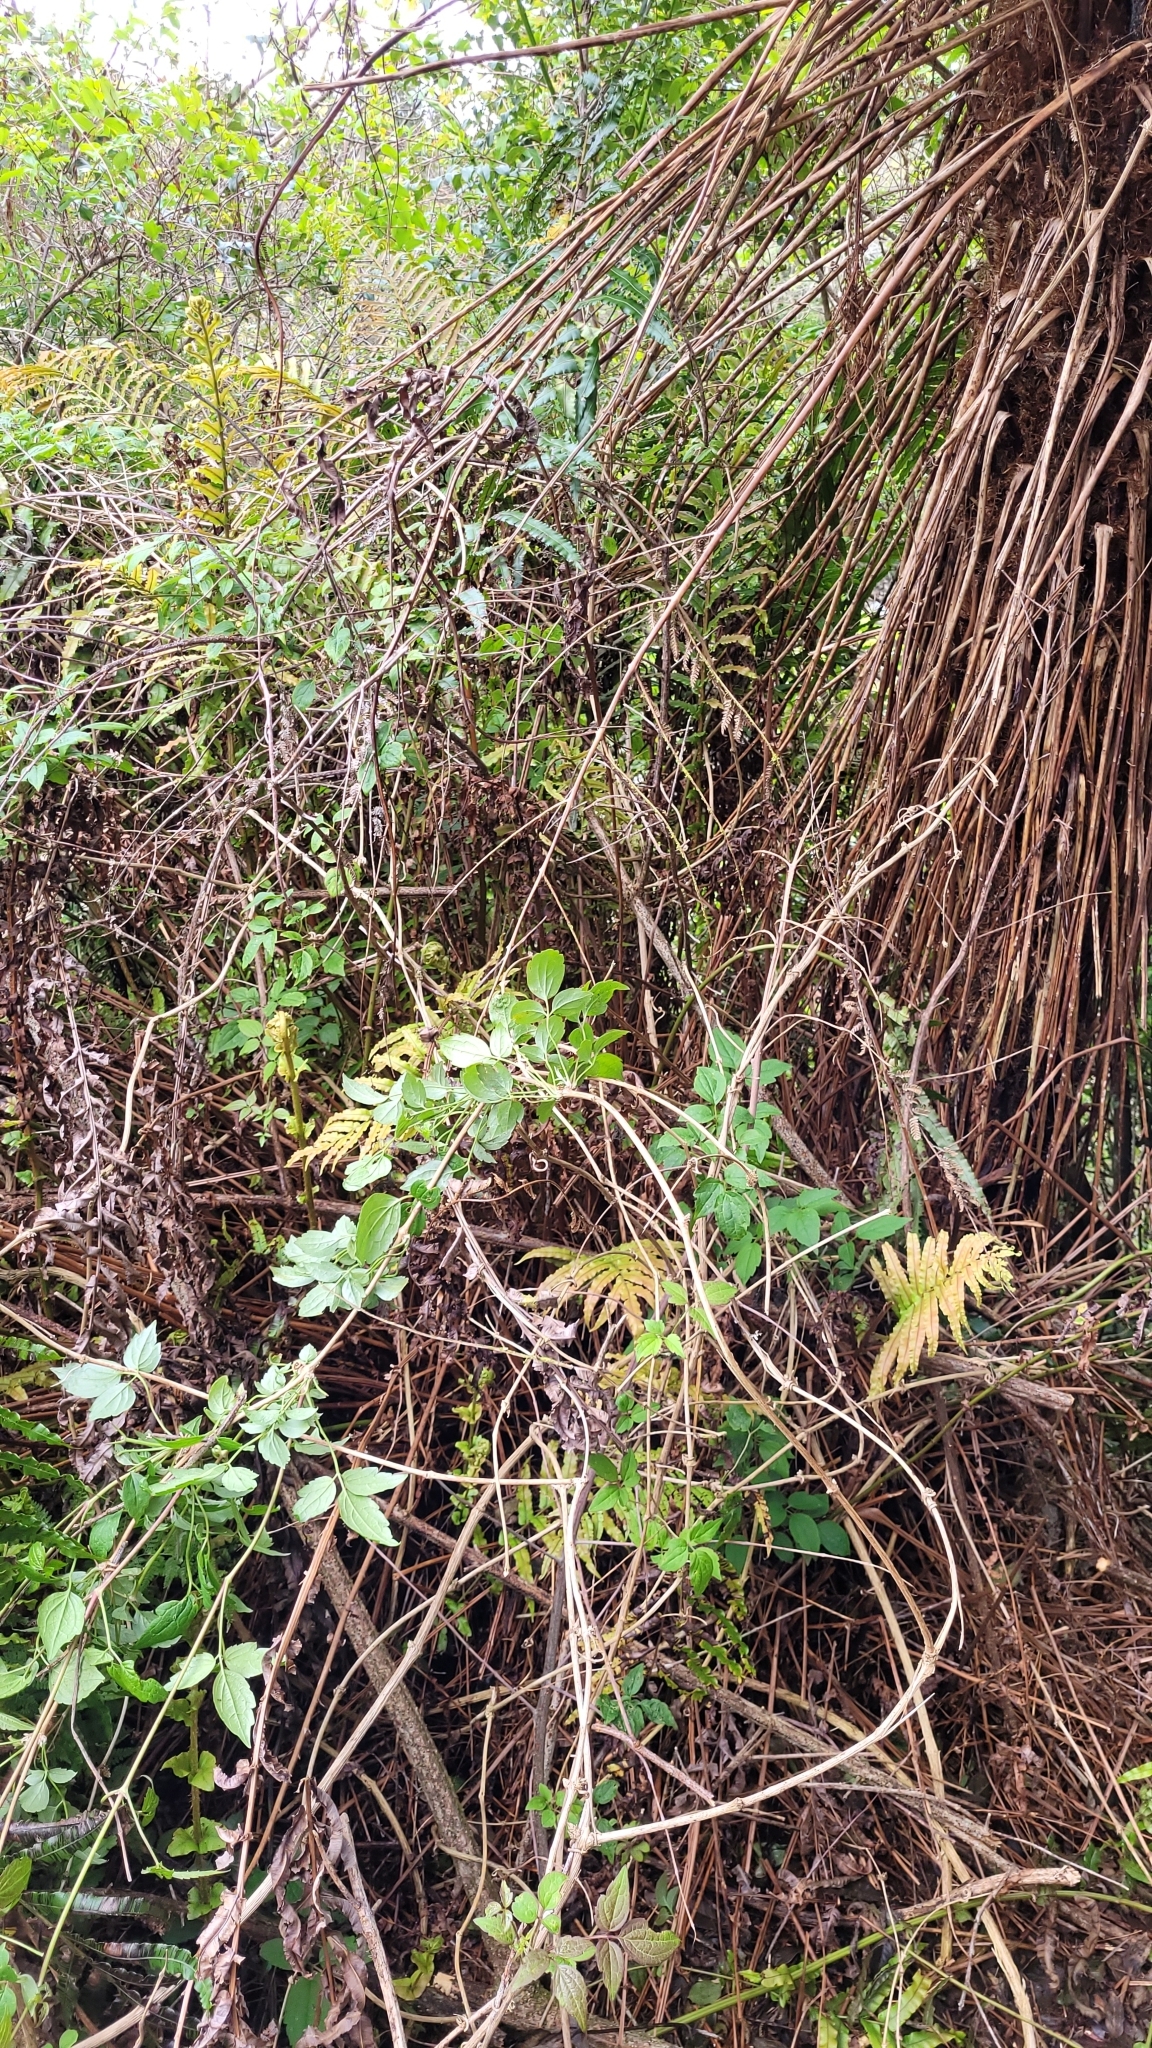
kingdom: Plantae
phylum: Tracheophyta
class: Magnoliopsida
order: Ranunculales
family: Ranunculaceae
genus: Clematis
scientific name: Clematis vitalba
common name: Evergreen clematis
